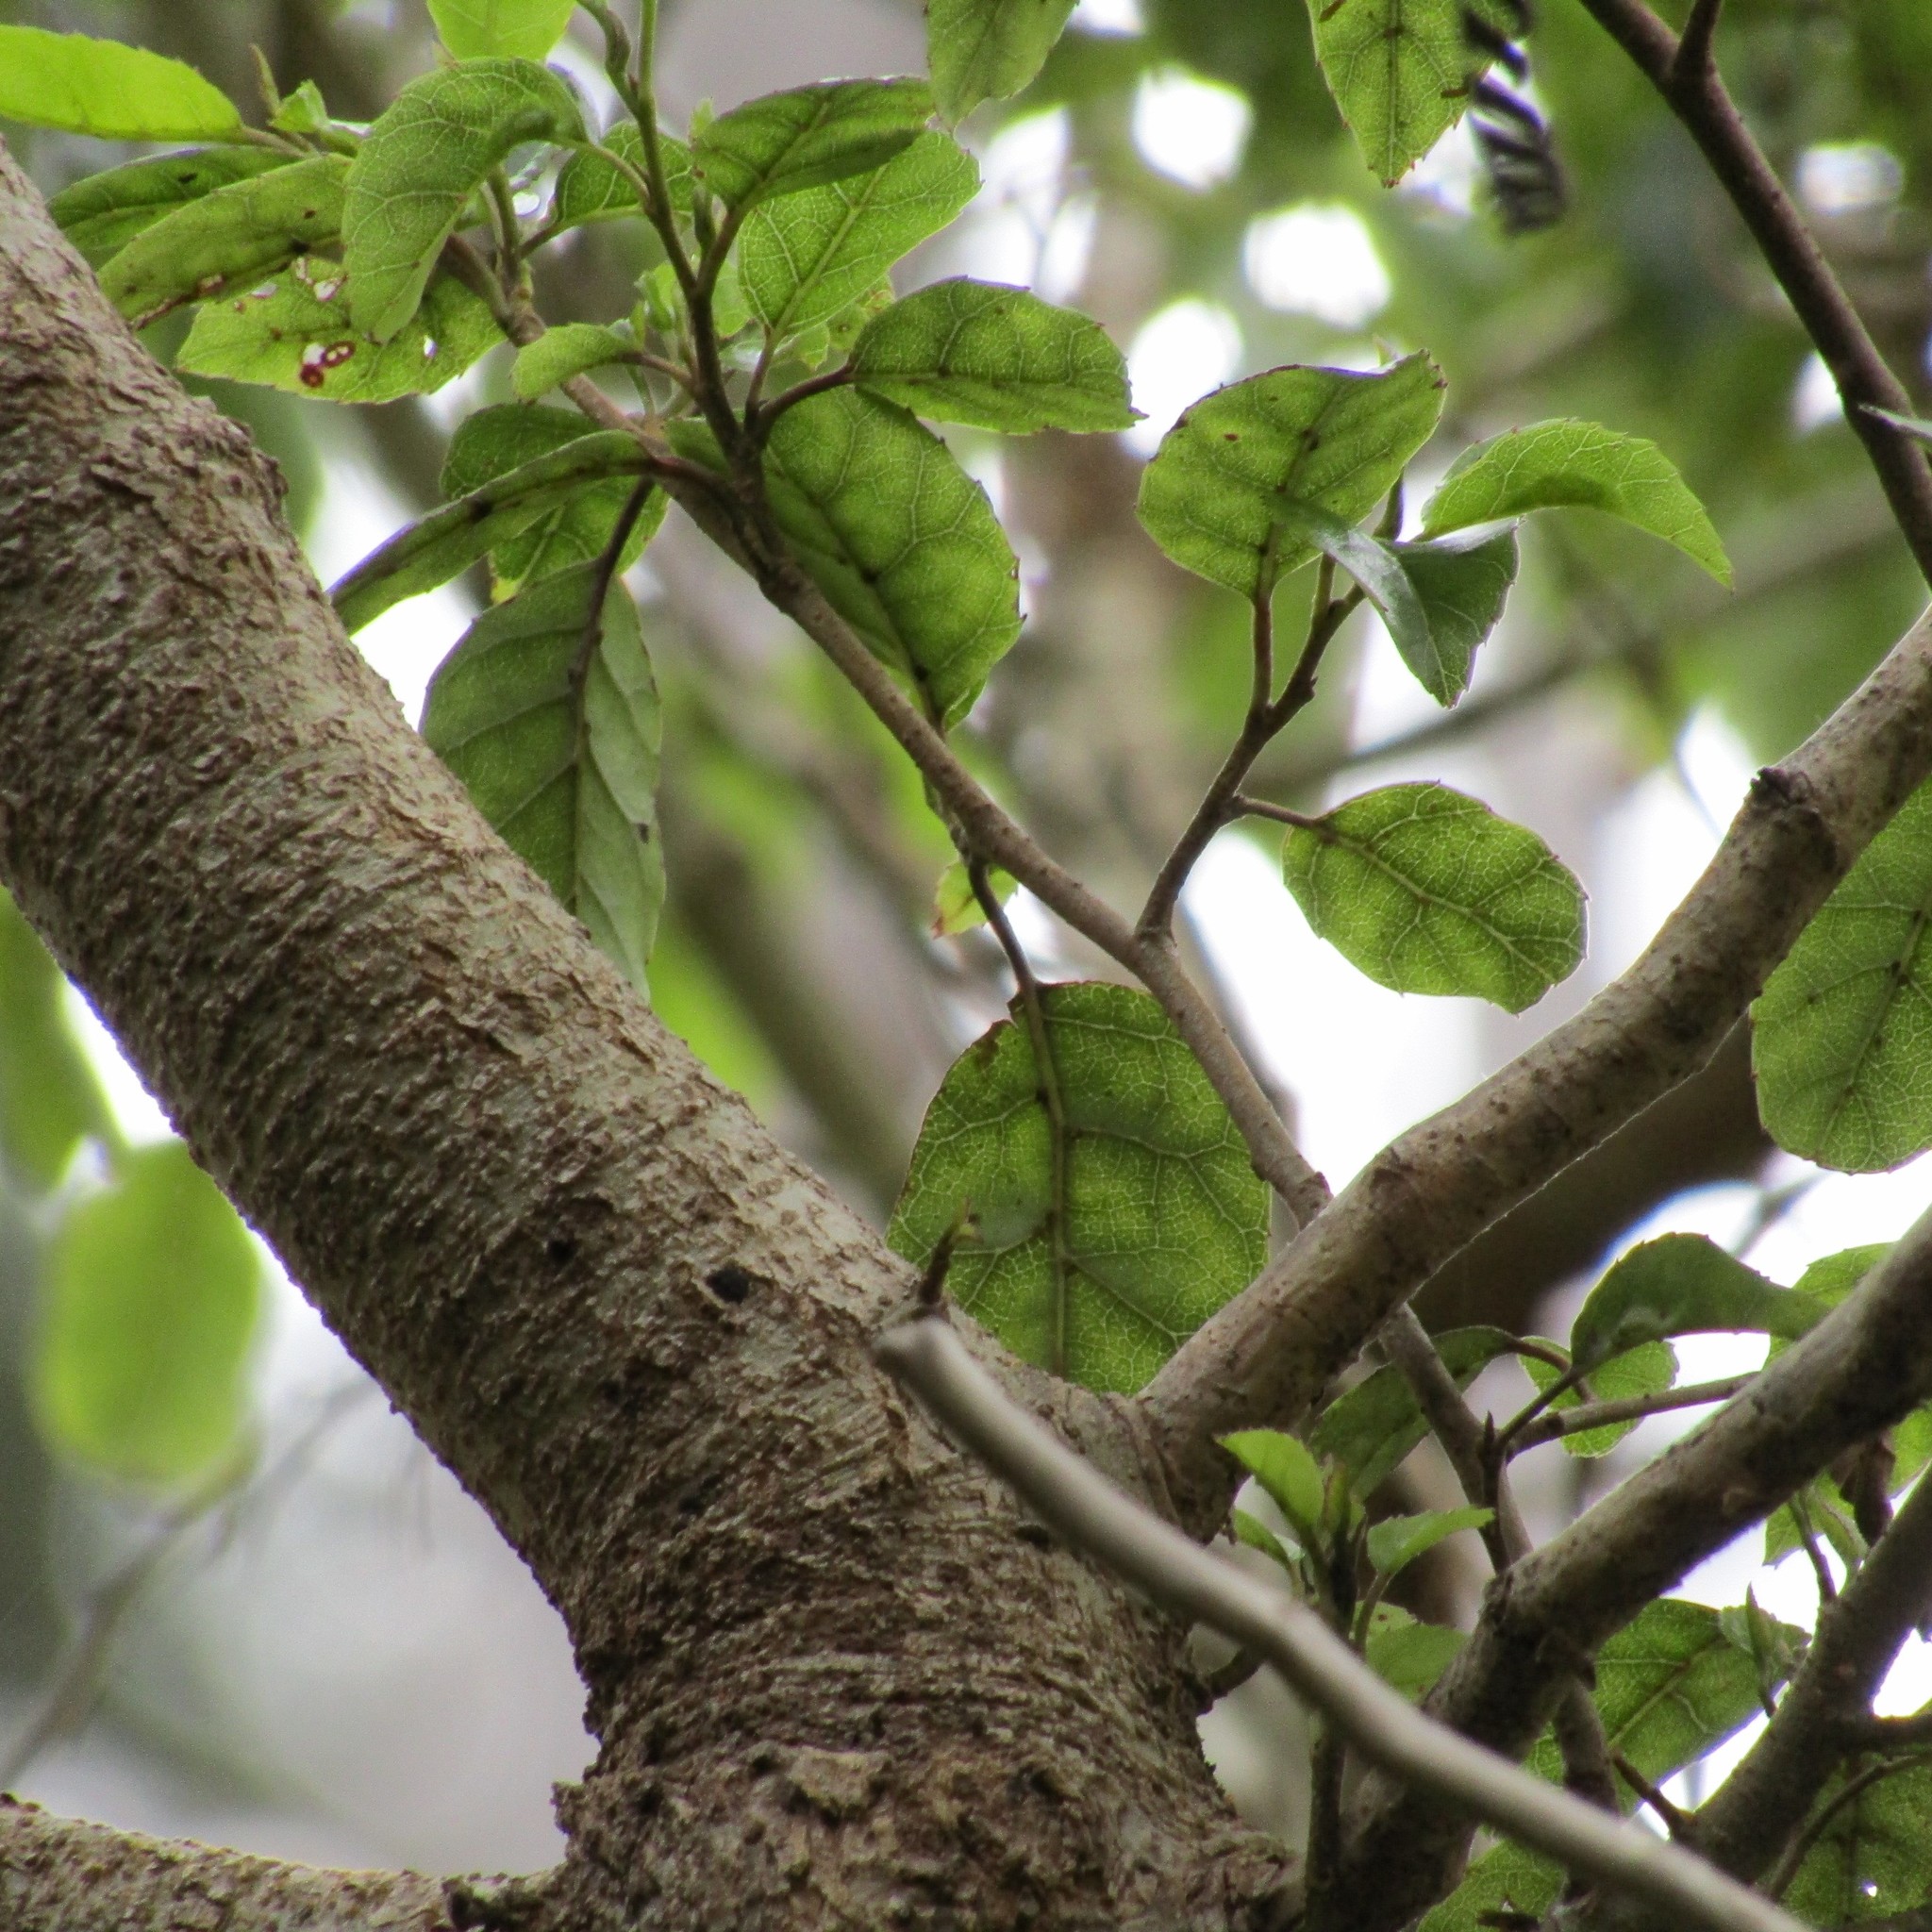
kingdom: Plantae
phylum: Tracheophyta
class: Magnoliopsida
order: Asterales
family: Rousseaceae
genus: Carpodetus
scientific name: Carpodetus serratus
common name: White mapau
